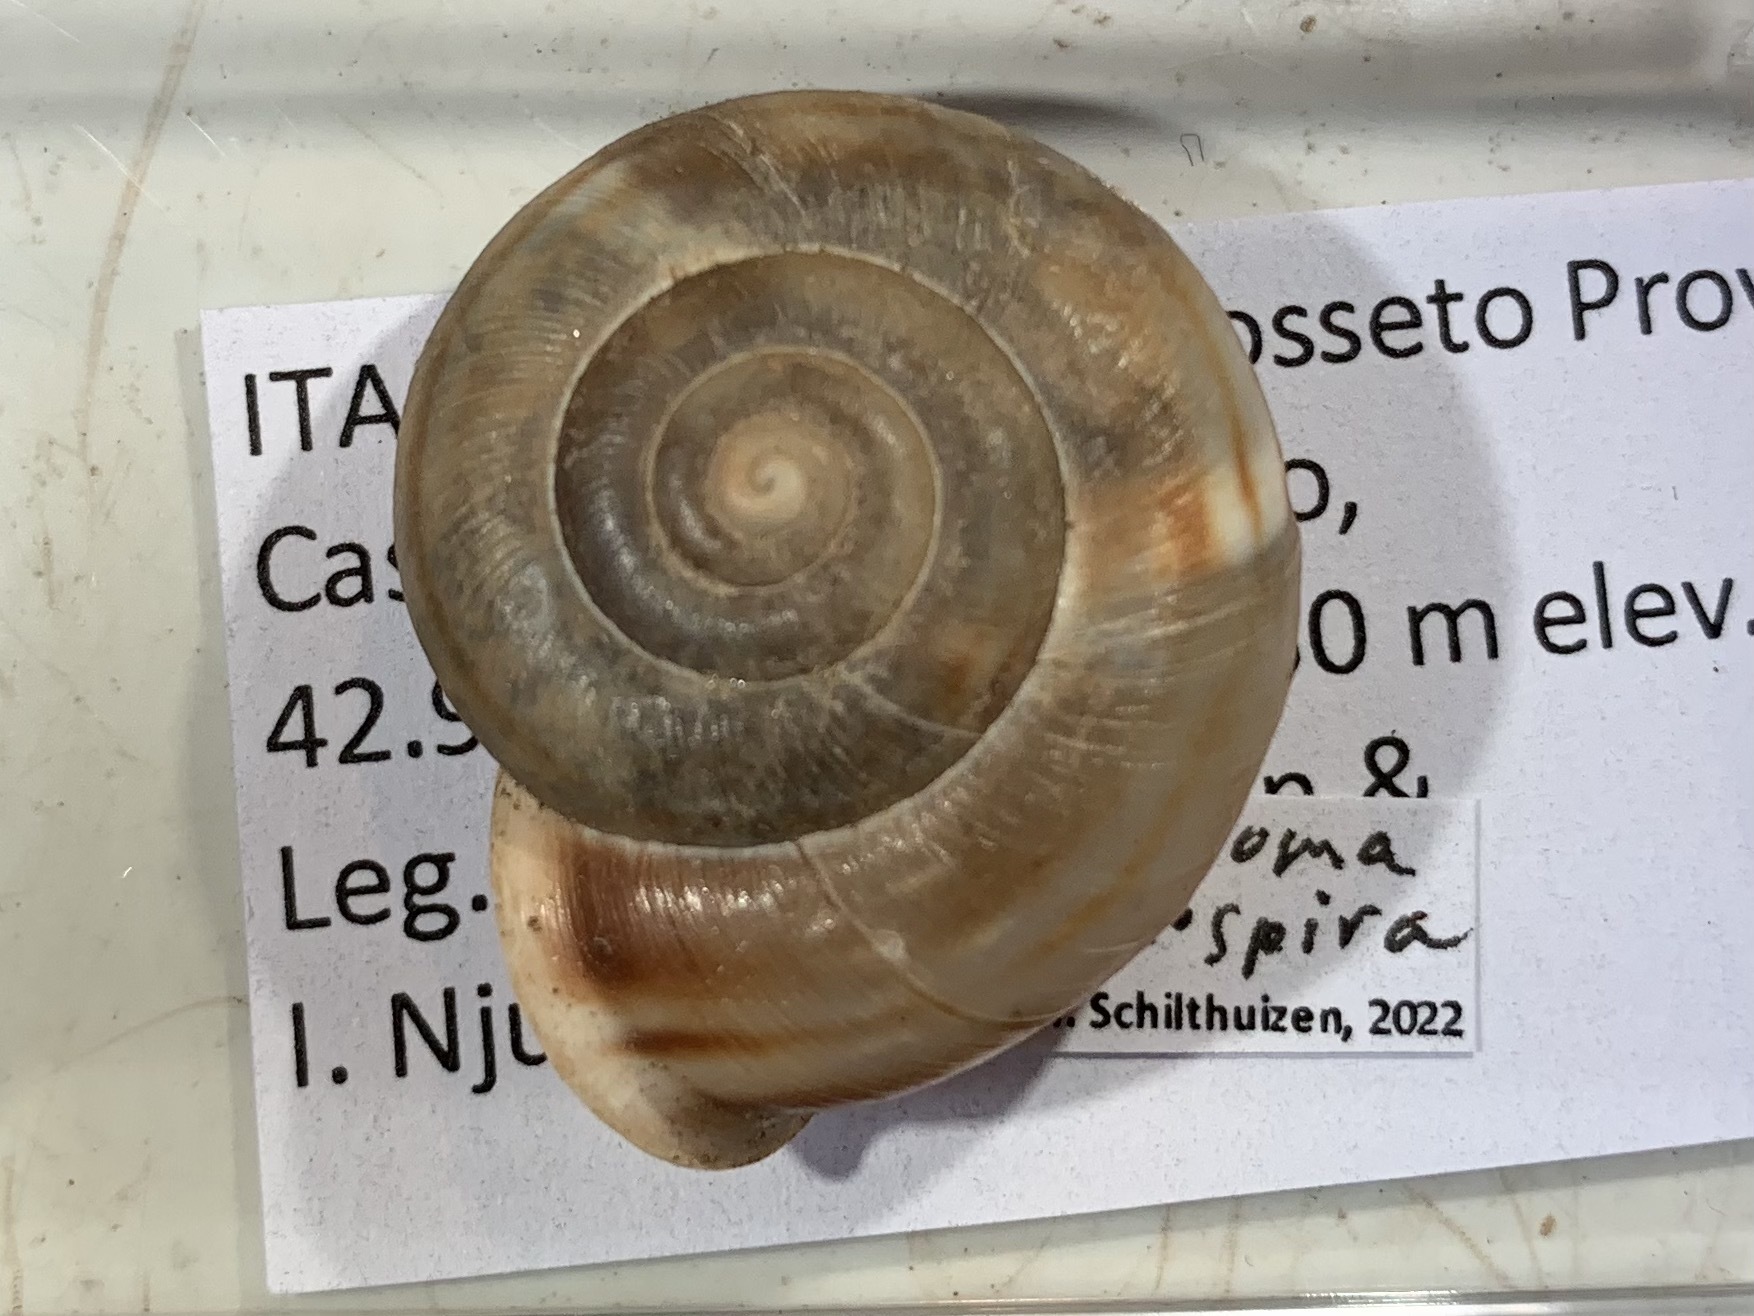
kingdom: Animalia
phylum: Mollusca
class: Gastropoda
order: Stylommatophora
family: Helicidae
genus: Campylaea
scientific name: Campylaea planospira
